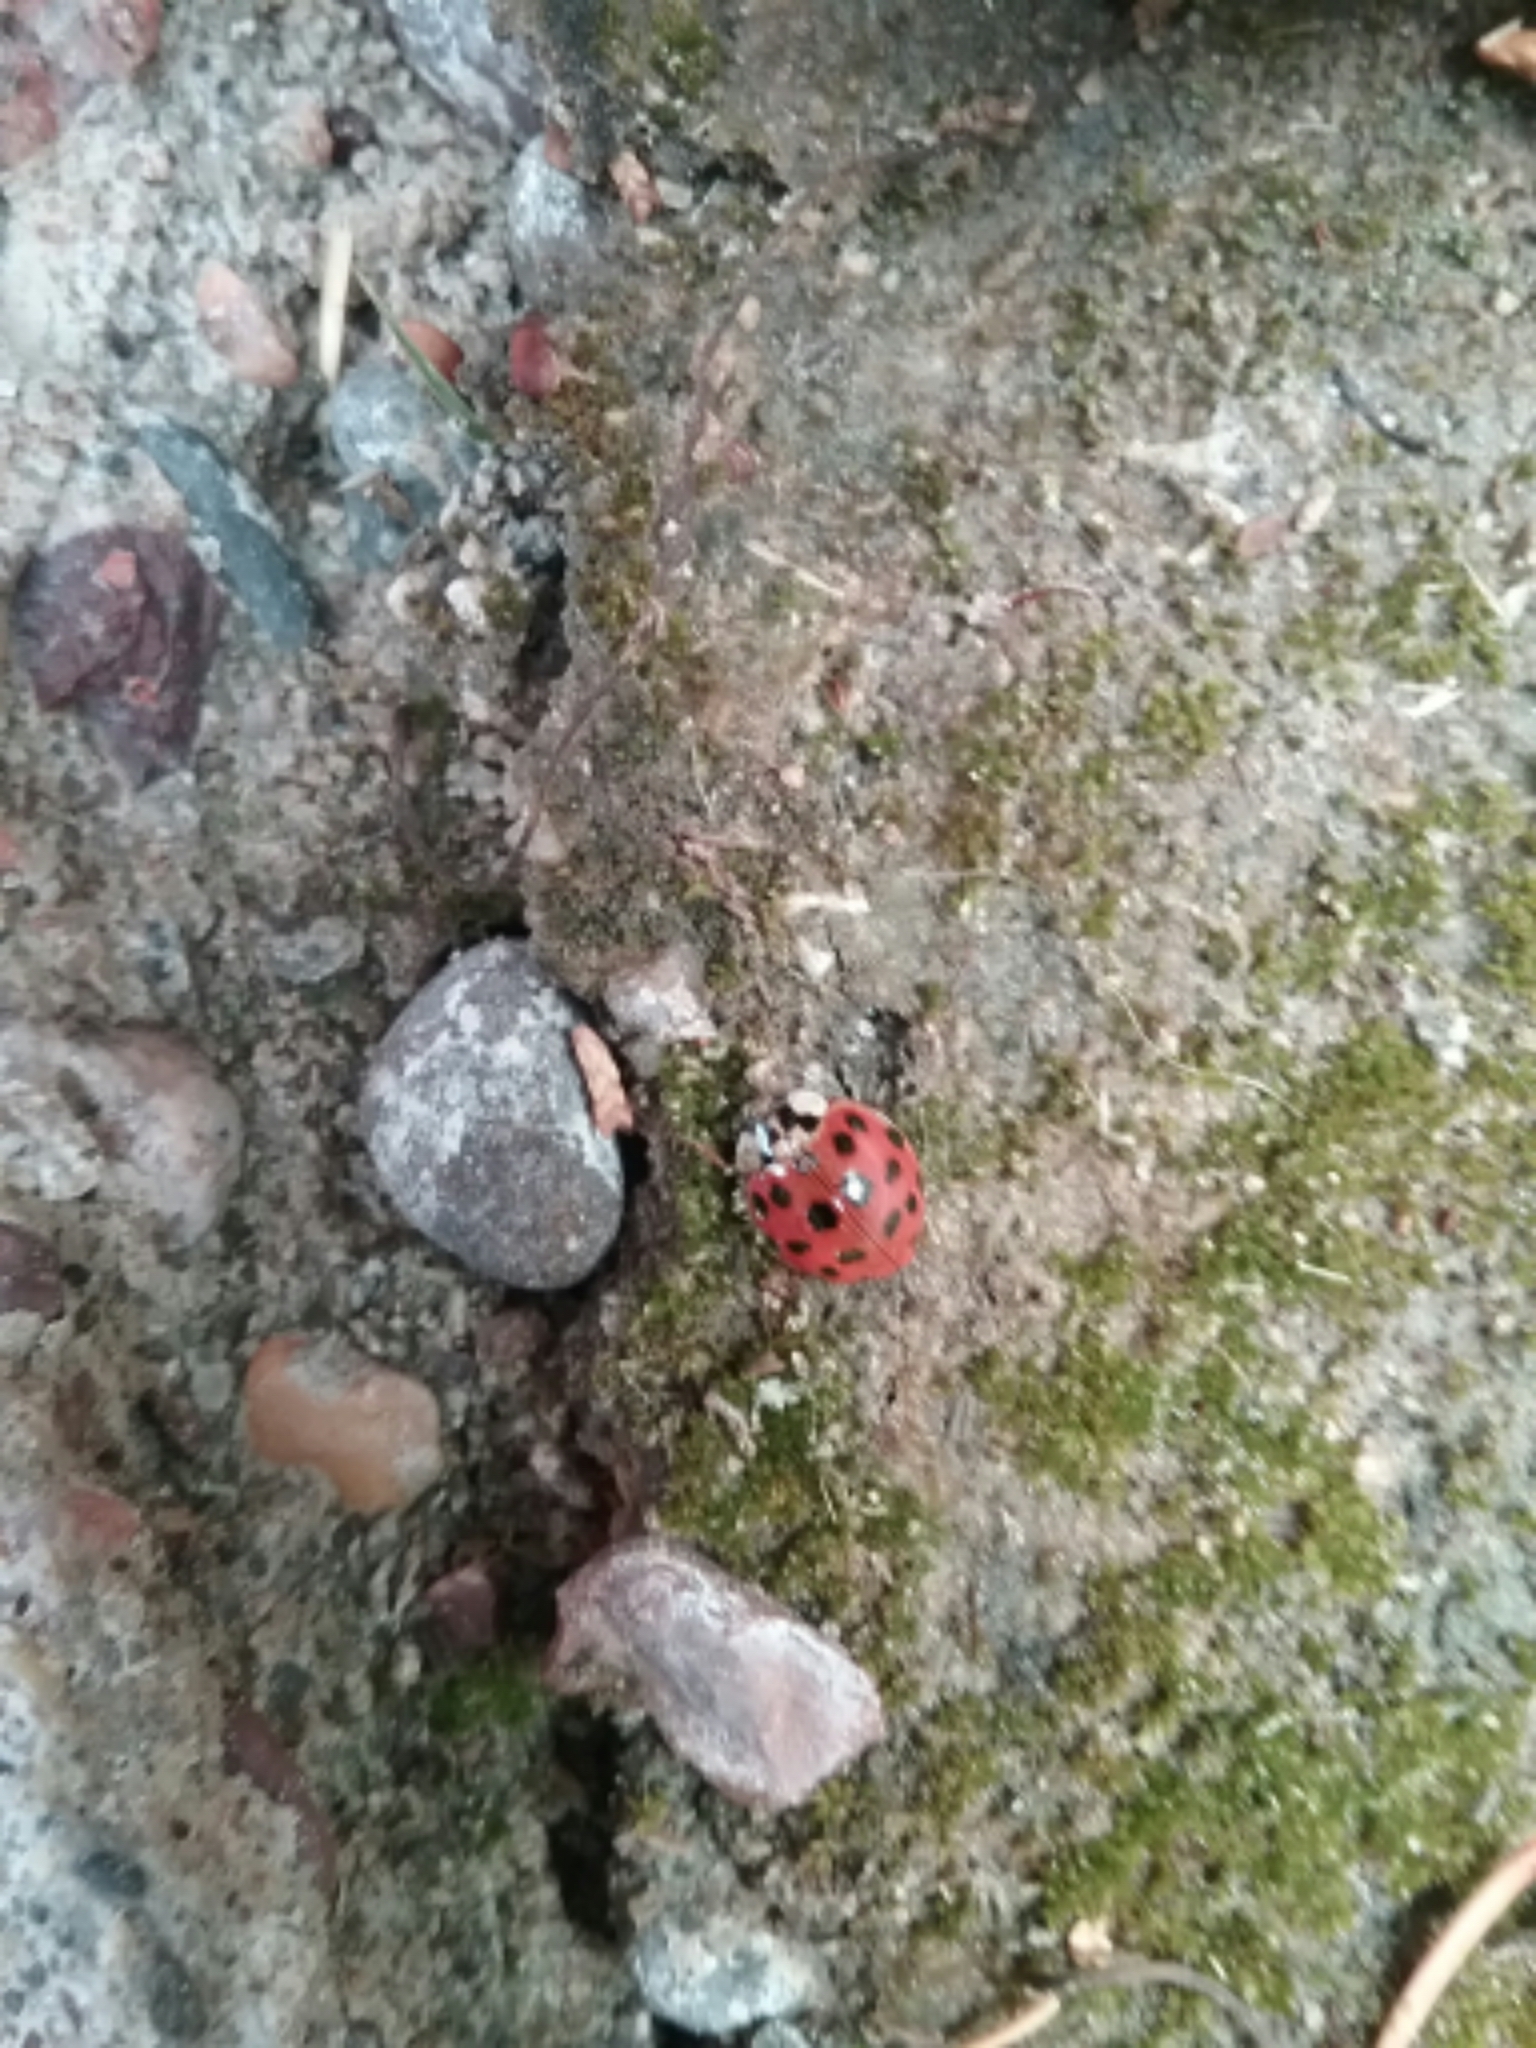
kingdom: Animalia
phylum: Arthropoda
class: Insecta
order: Coleoptera
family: Coccinellidae
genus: Harmonia
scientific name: Harmonia axyridis
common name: Harlequin ladybird
